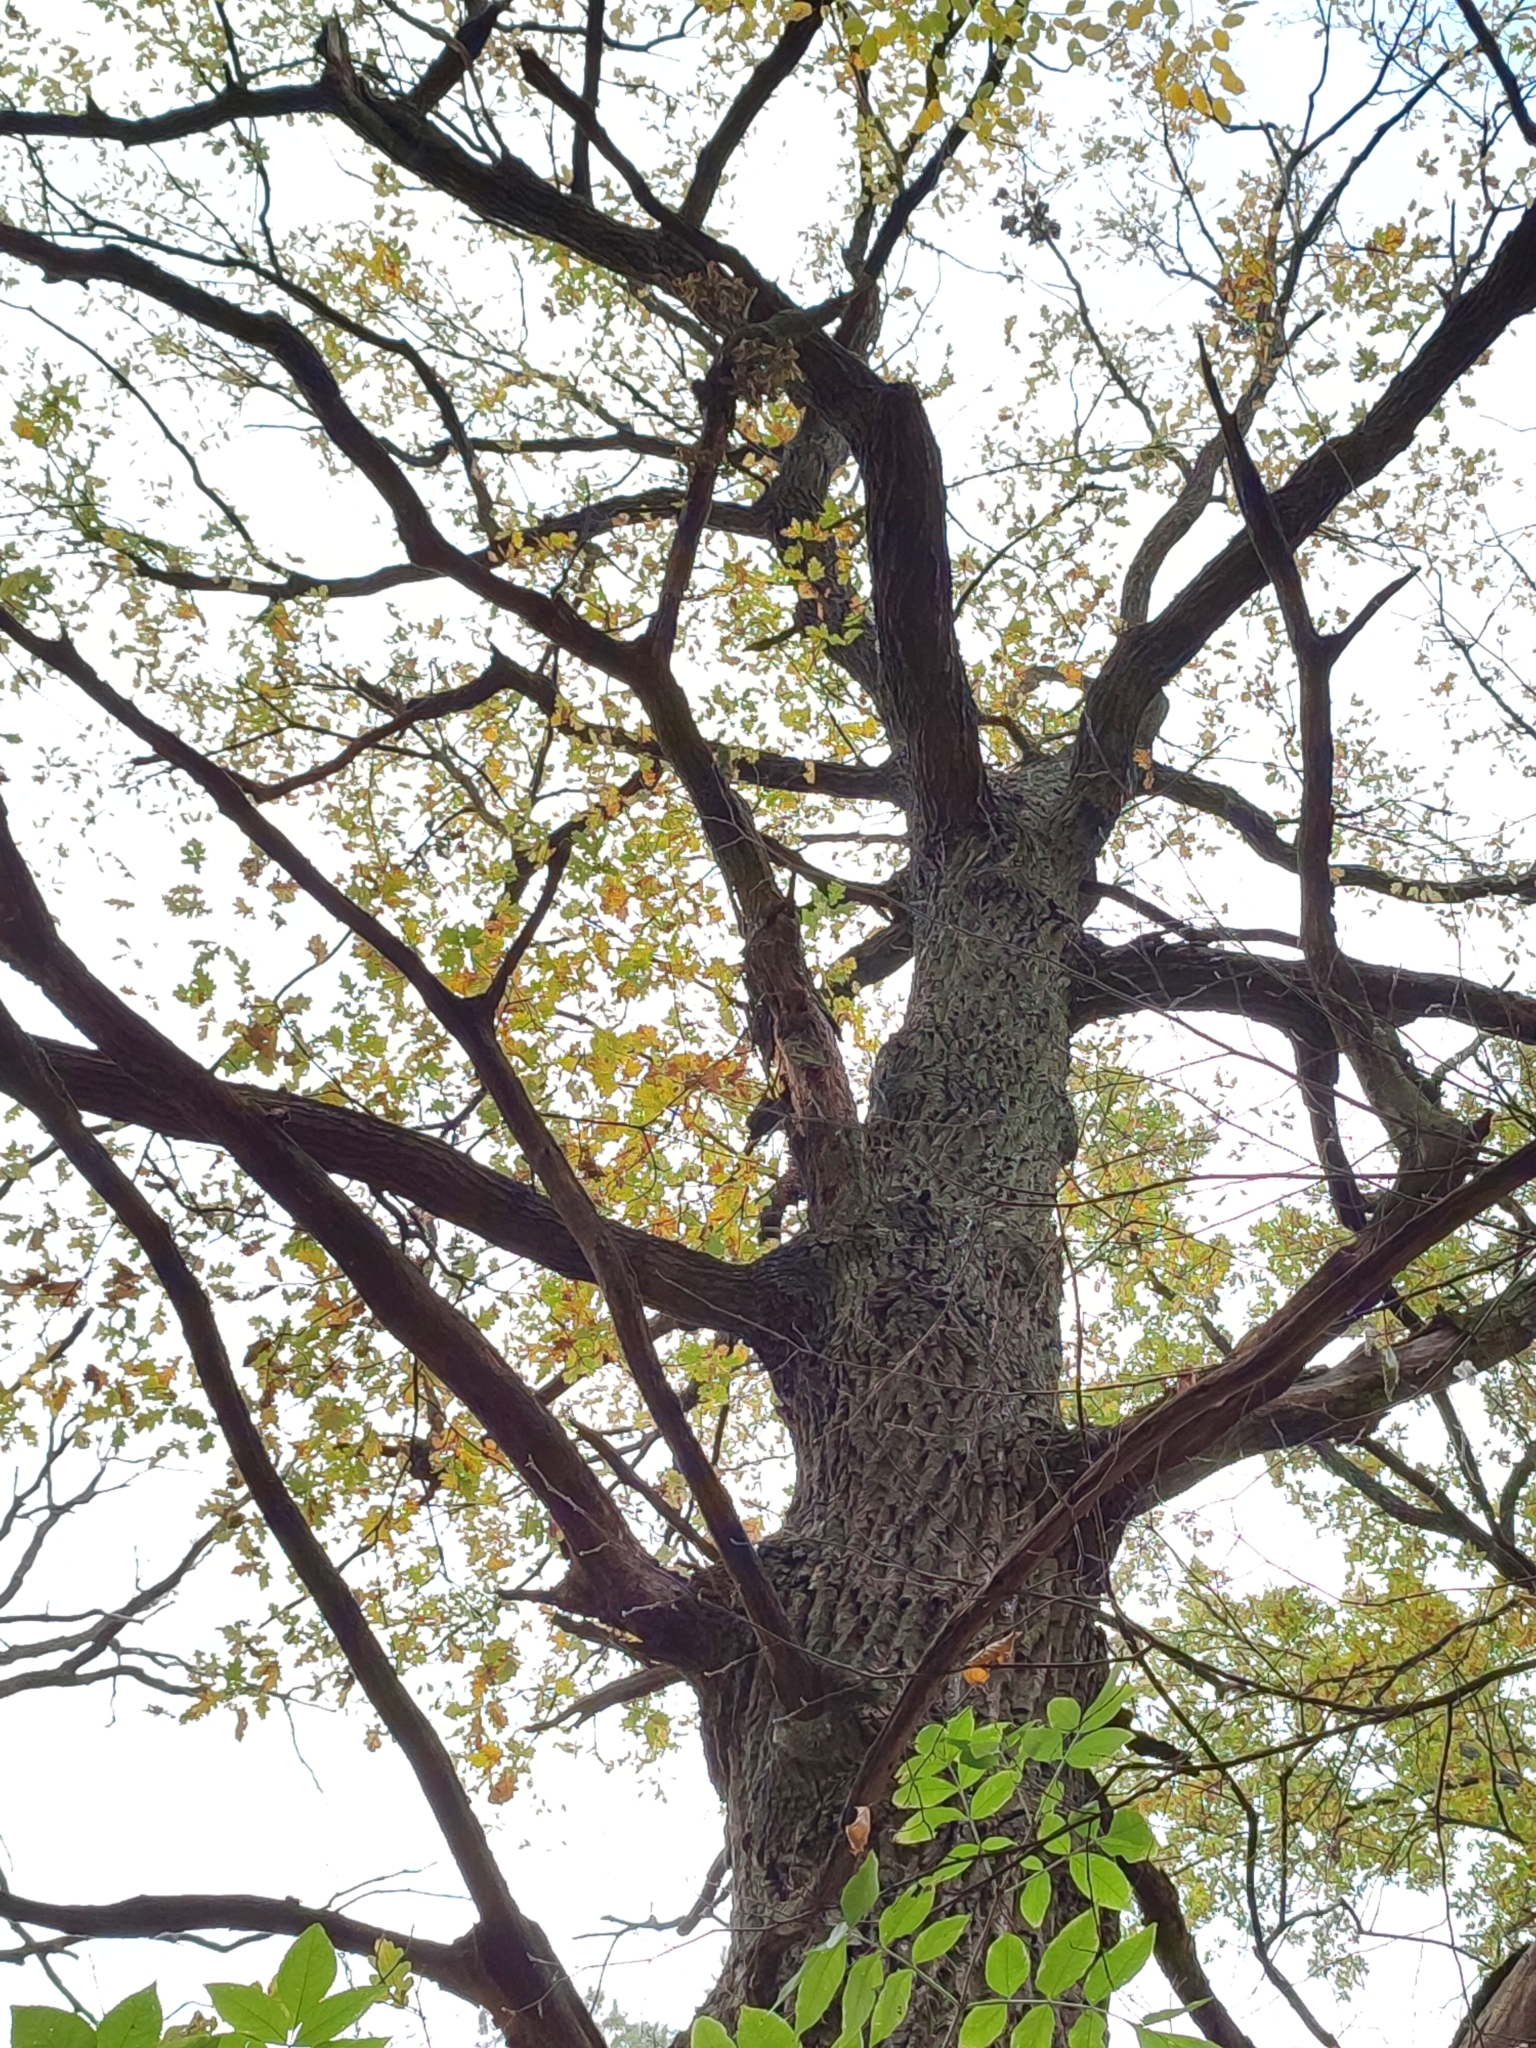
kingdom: Plantae
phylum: Tracheophyta
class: Magnoliopsida
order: Fagales
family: Fagaceae
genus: Quercus
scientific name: Quercus robur
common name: Pedunculate oak
